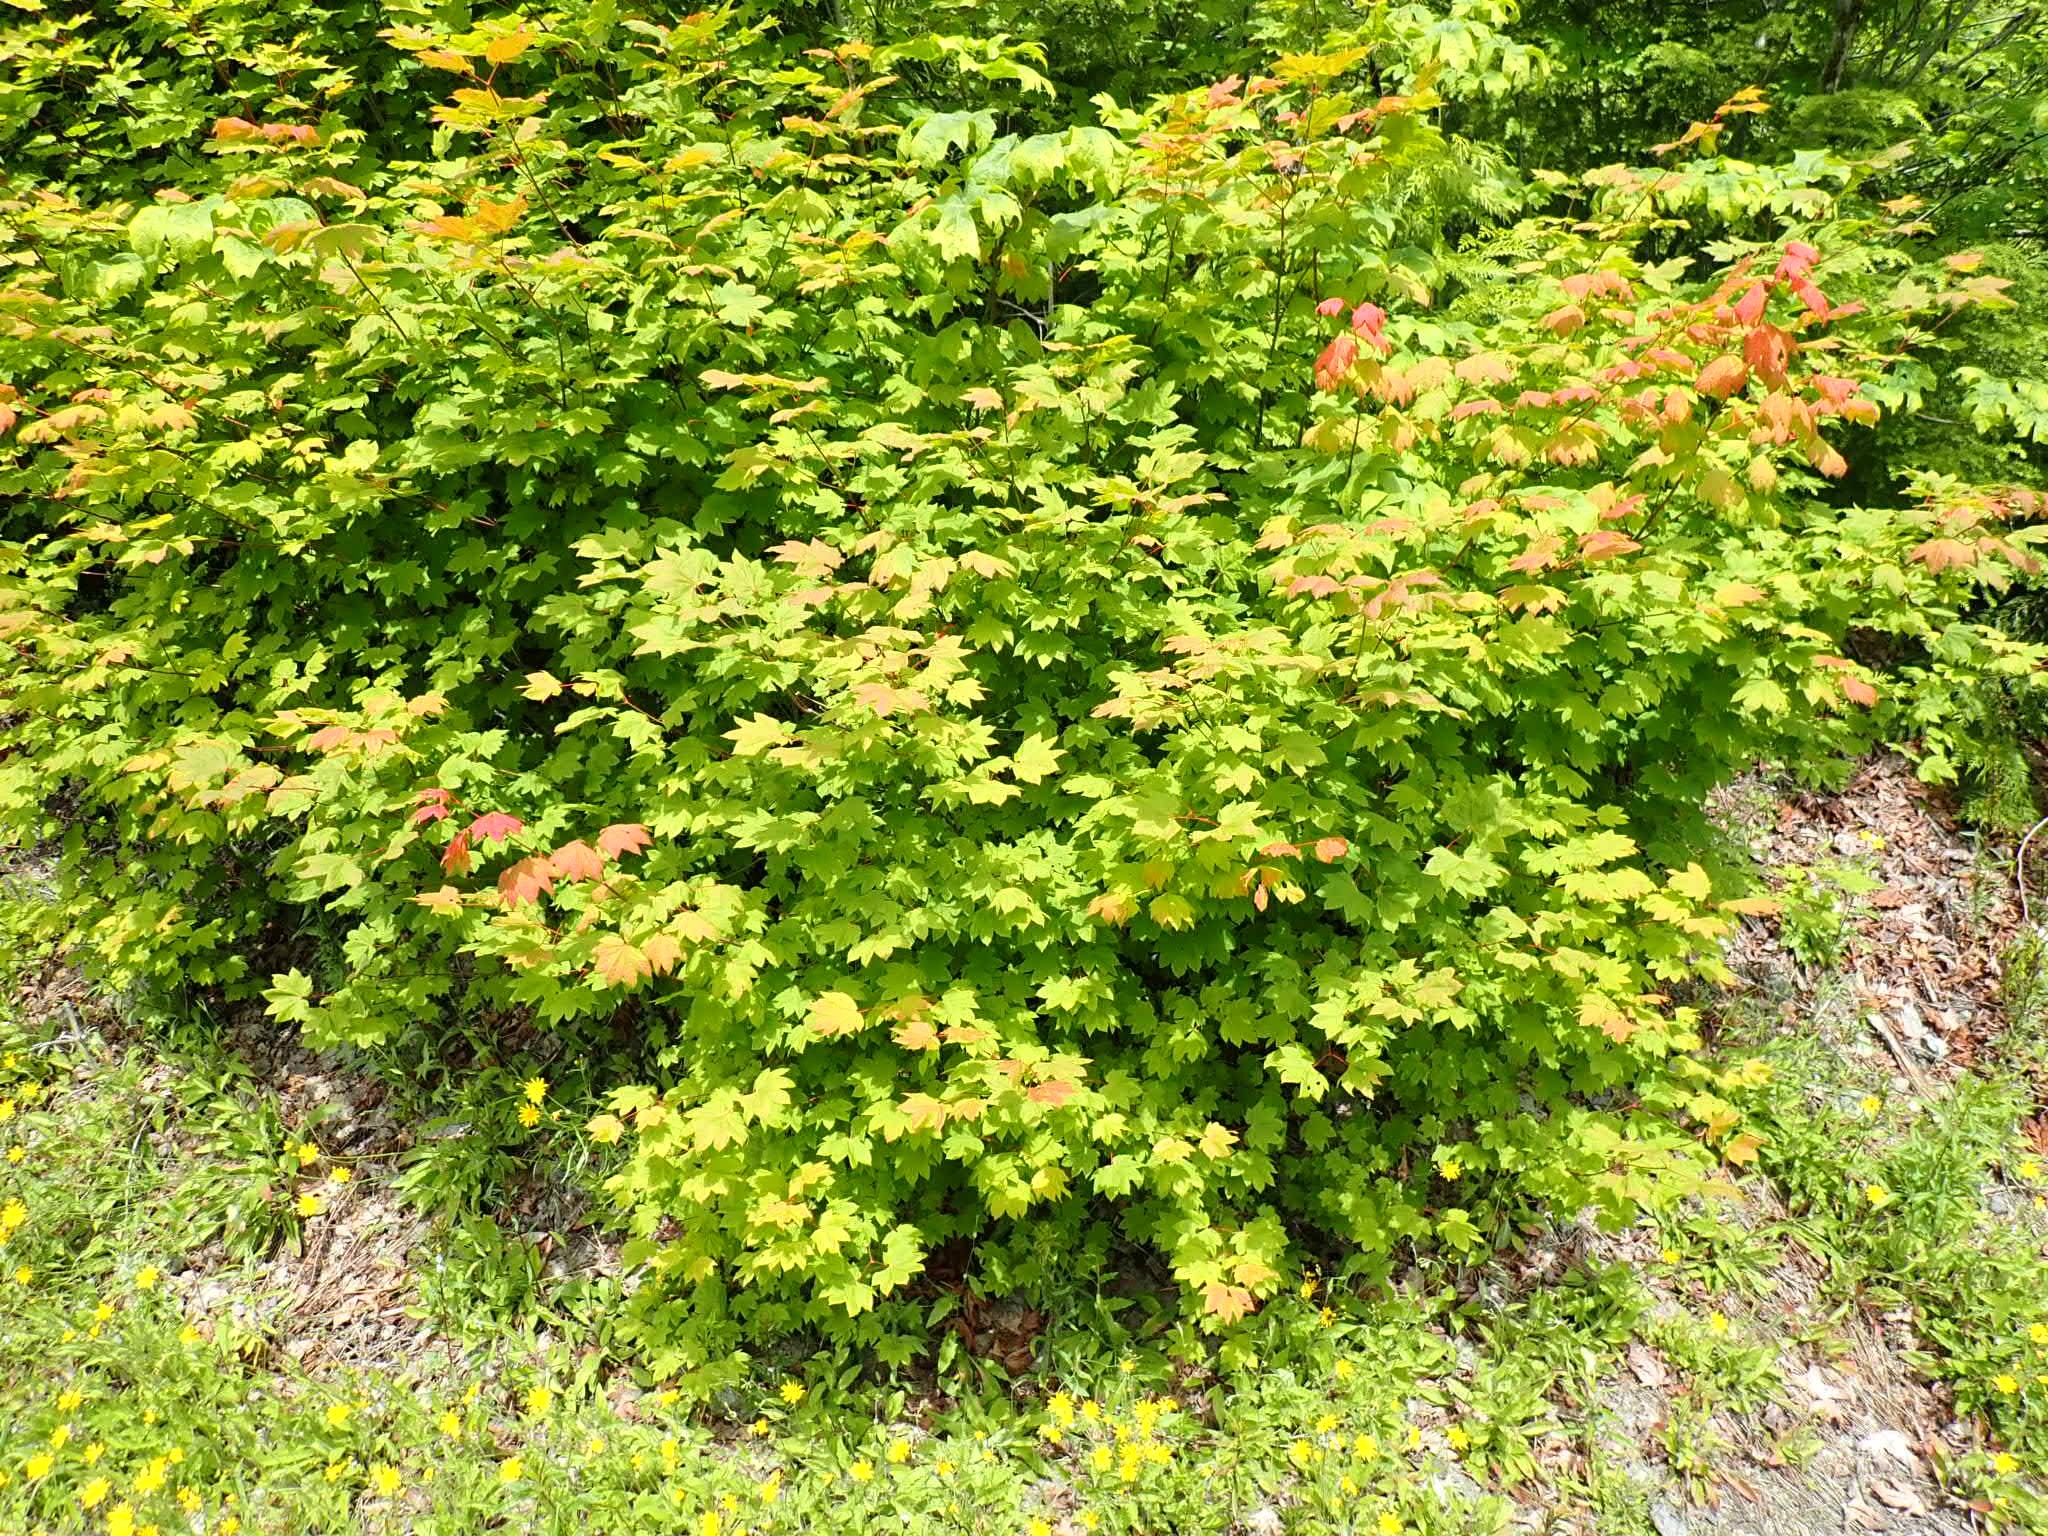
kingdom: Plantae
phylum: Tracheophyta
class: Magnoliopsida
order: Sapindales
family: Sapindaceae
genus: Acer
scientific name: Acer circinatum
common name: Vine maple
